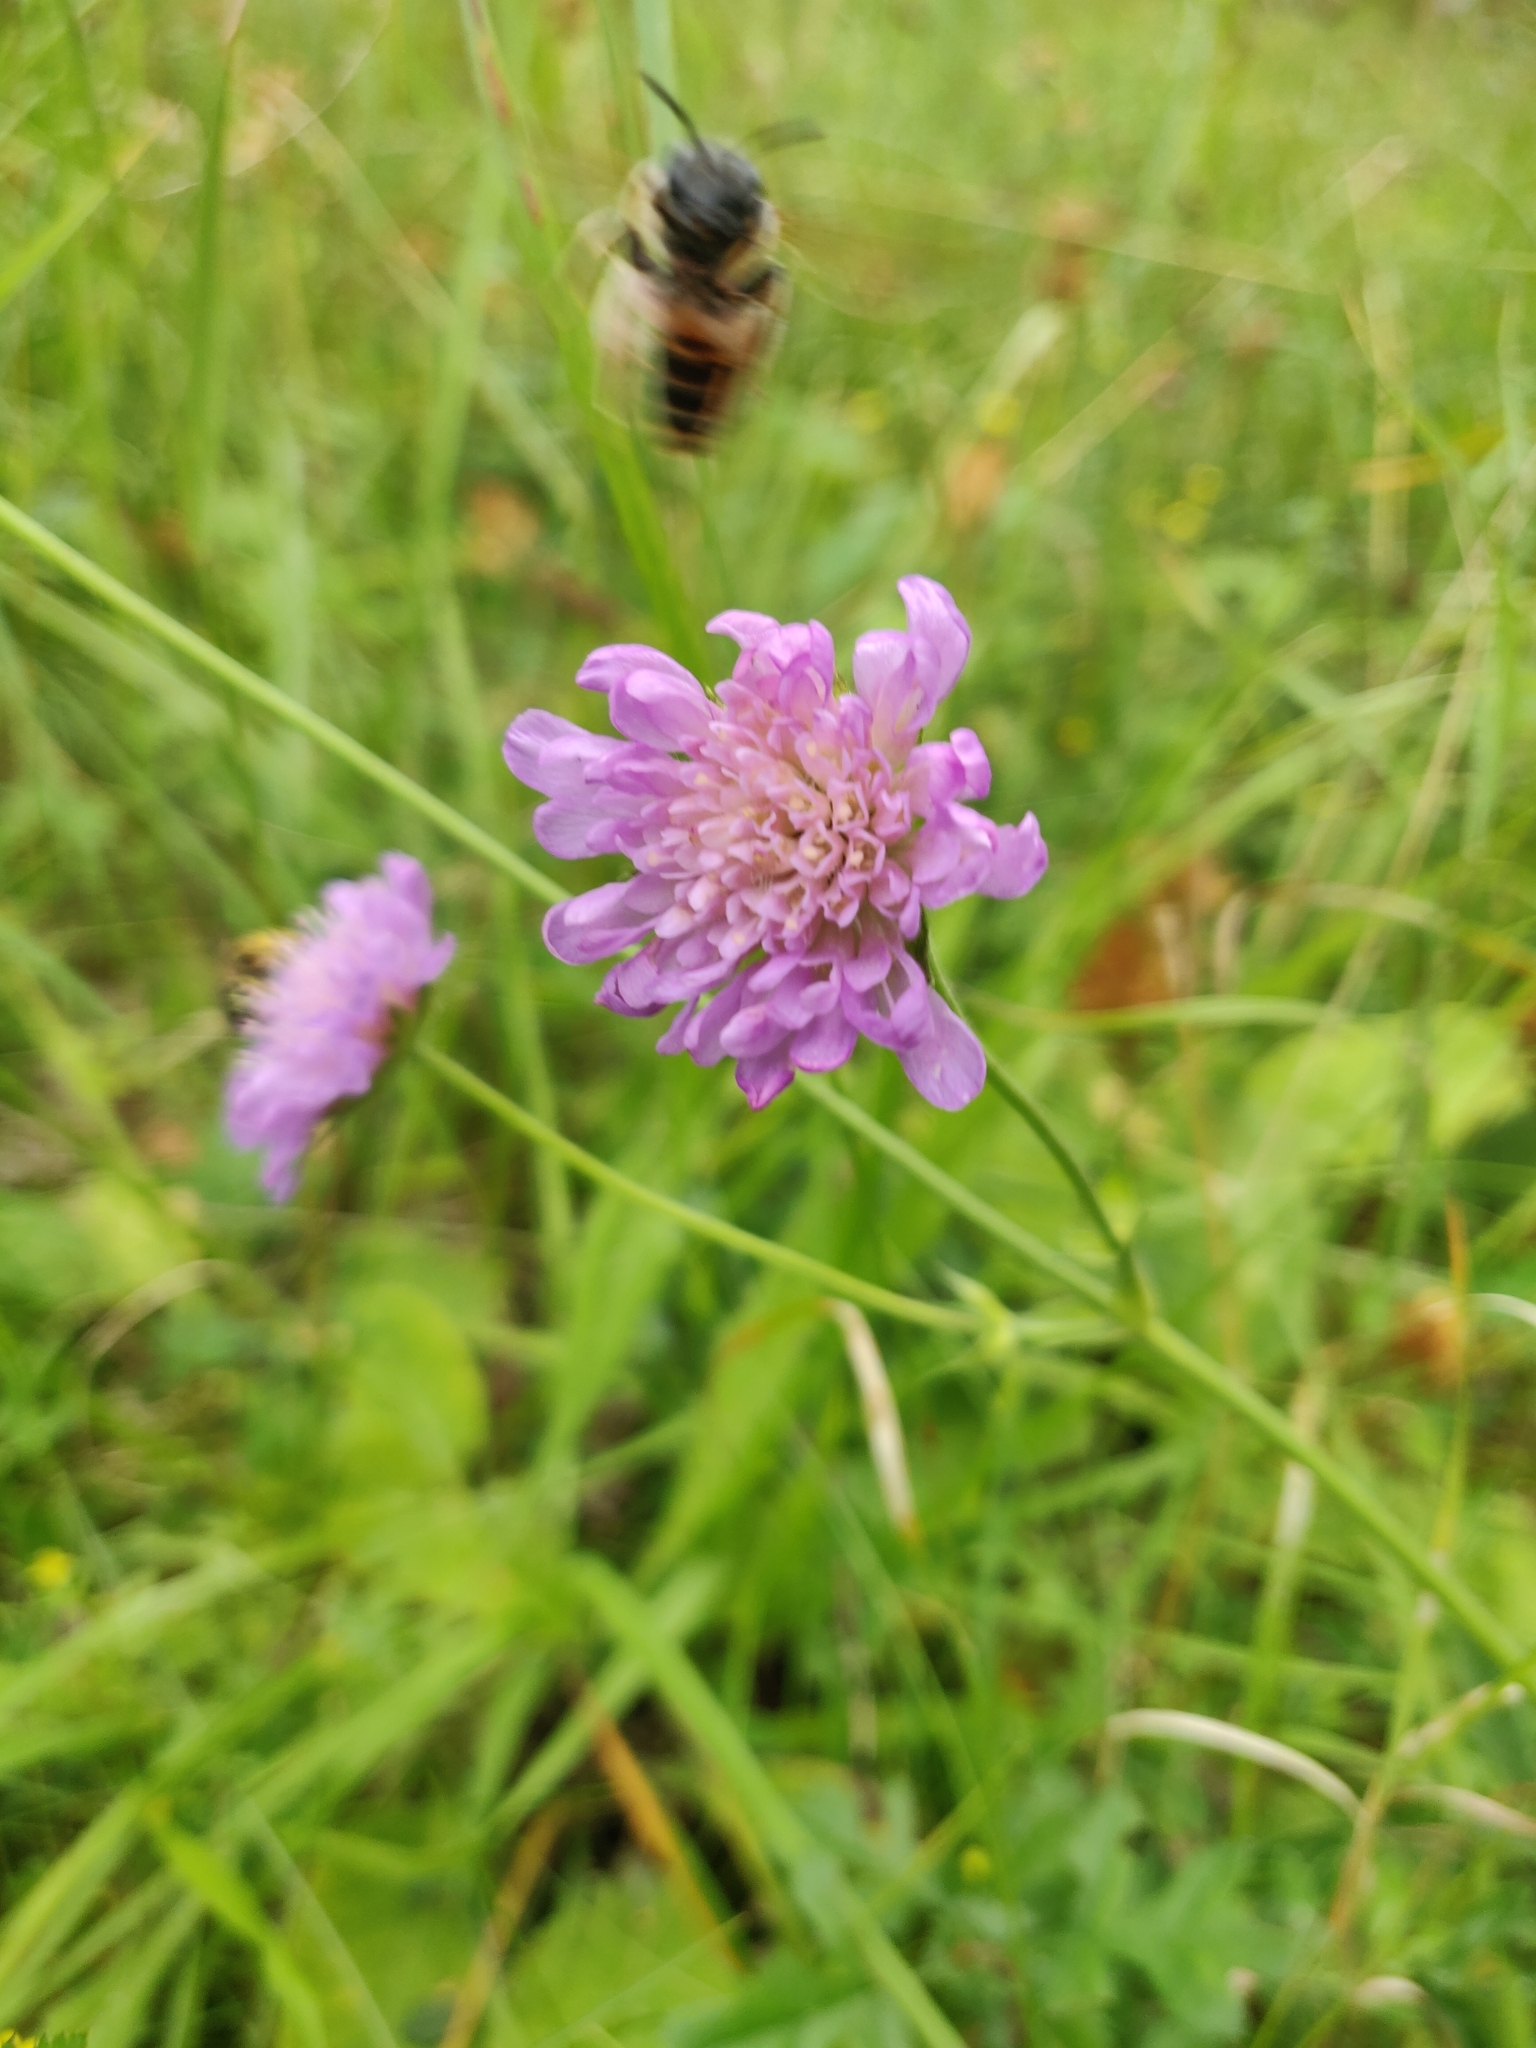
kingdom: Plantae
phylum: Tracheophyta
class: Magnoliopsida
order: Dipsacales
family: Caprifoliaceae
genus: Knautia
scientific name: Knautia arvensis
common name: Field scabiosa
